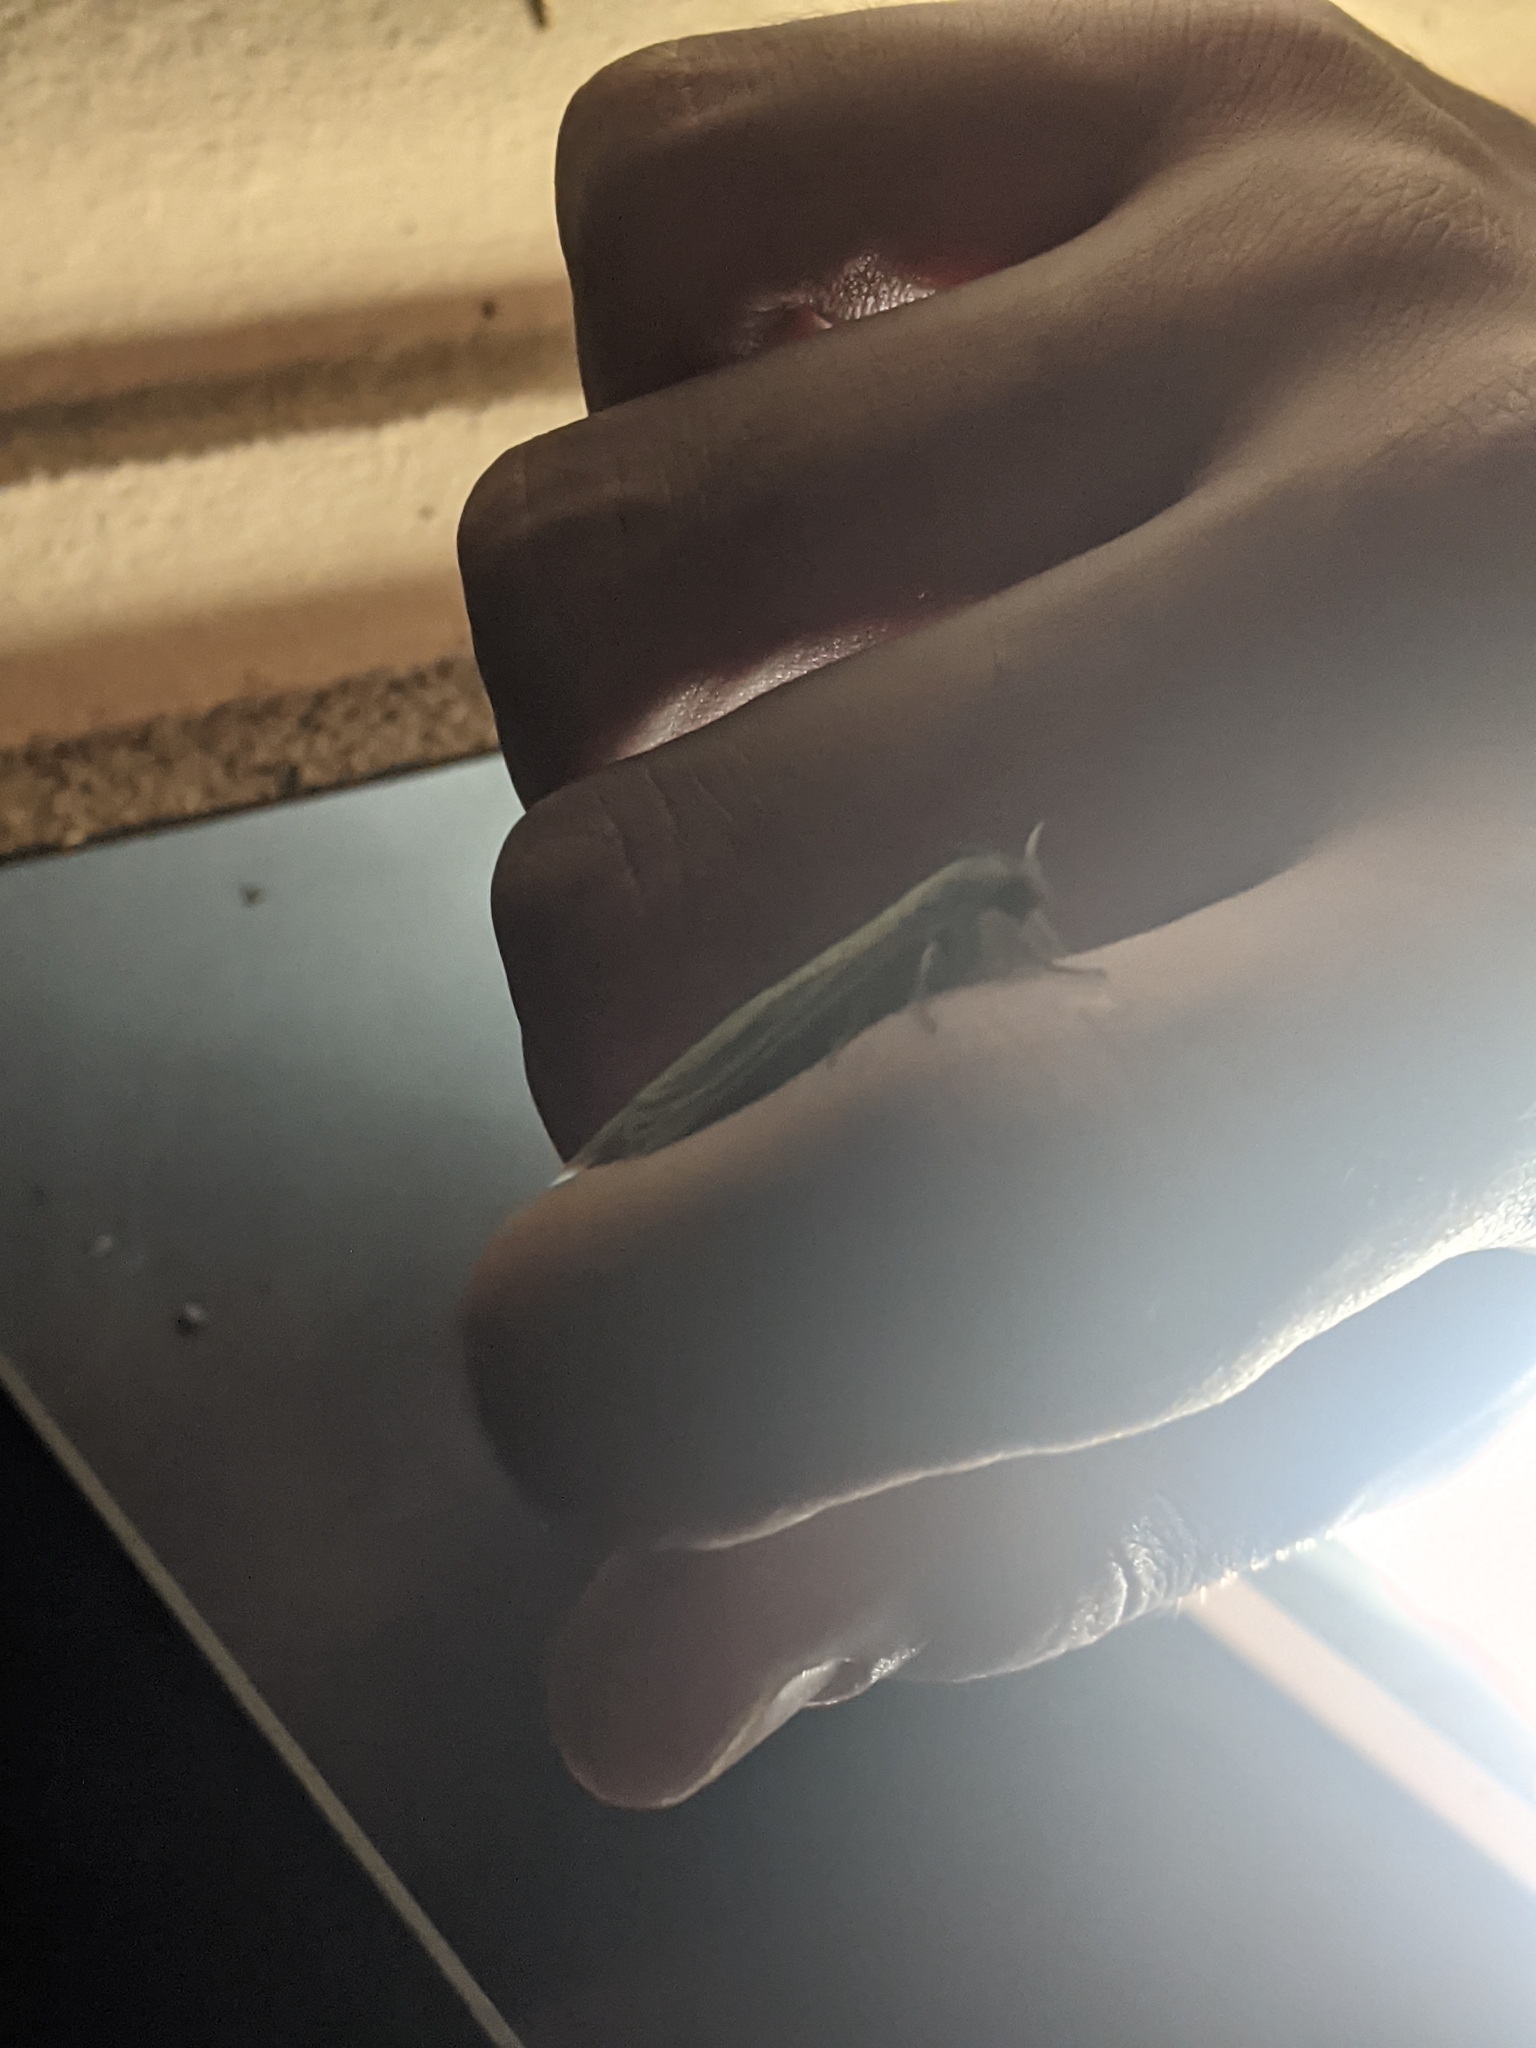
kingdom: Animalia
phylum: Arthropoda
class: Insecta
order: Lepidoptera
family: Cossidae
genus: Phragmataecia
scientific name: Phragmataecia castaneae
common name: Reed leopard
